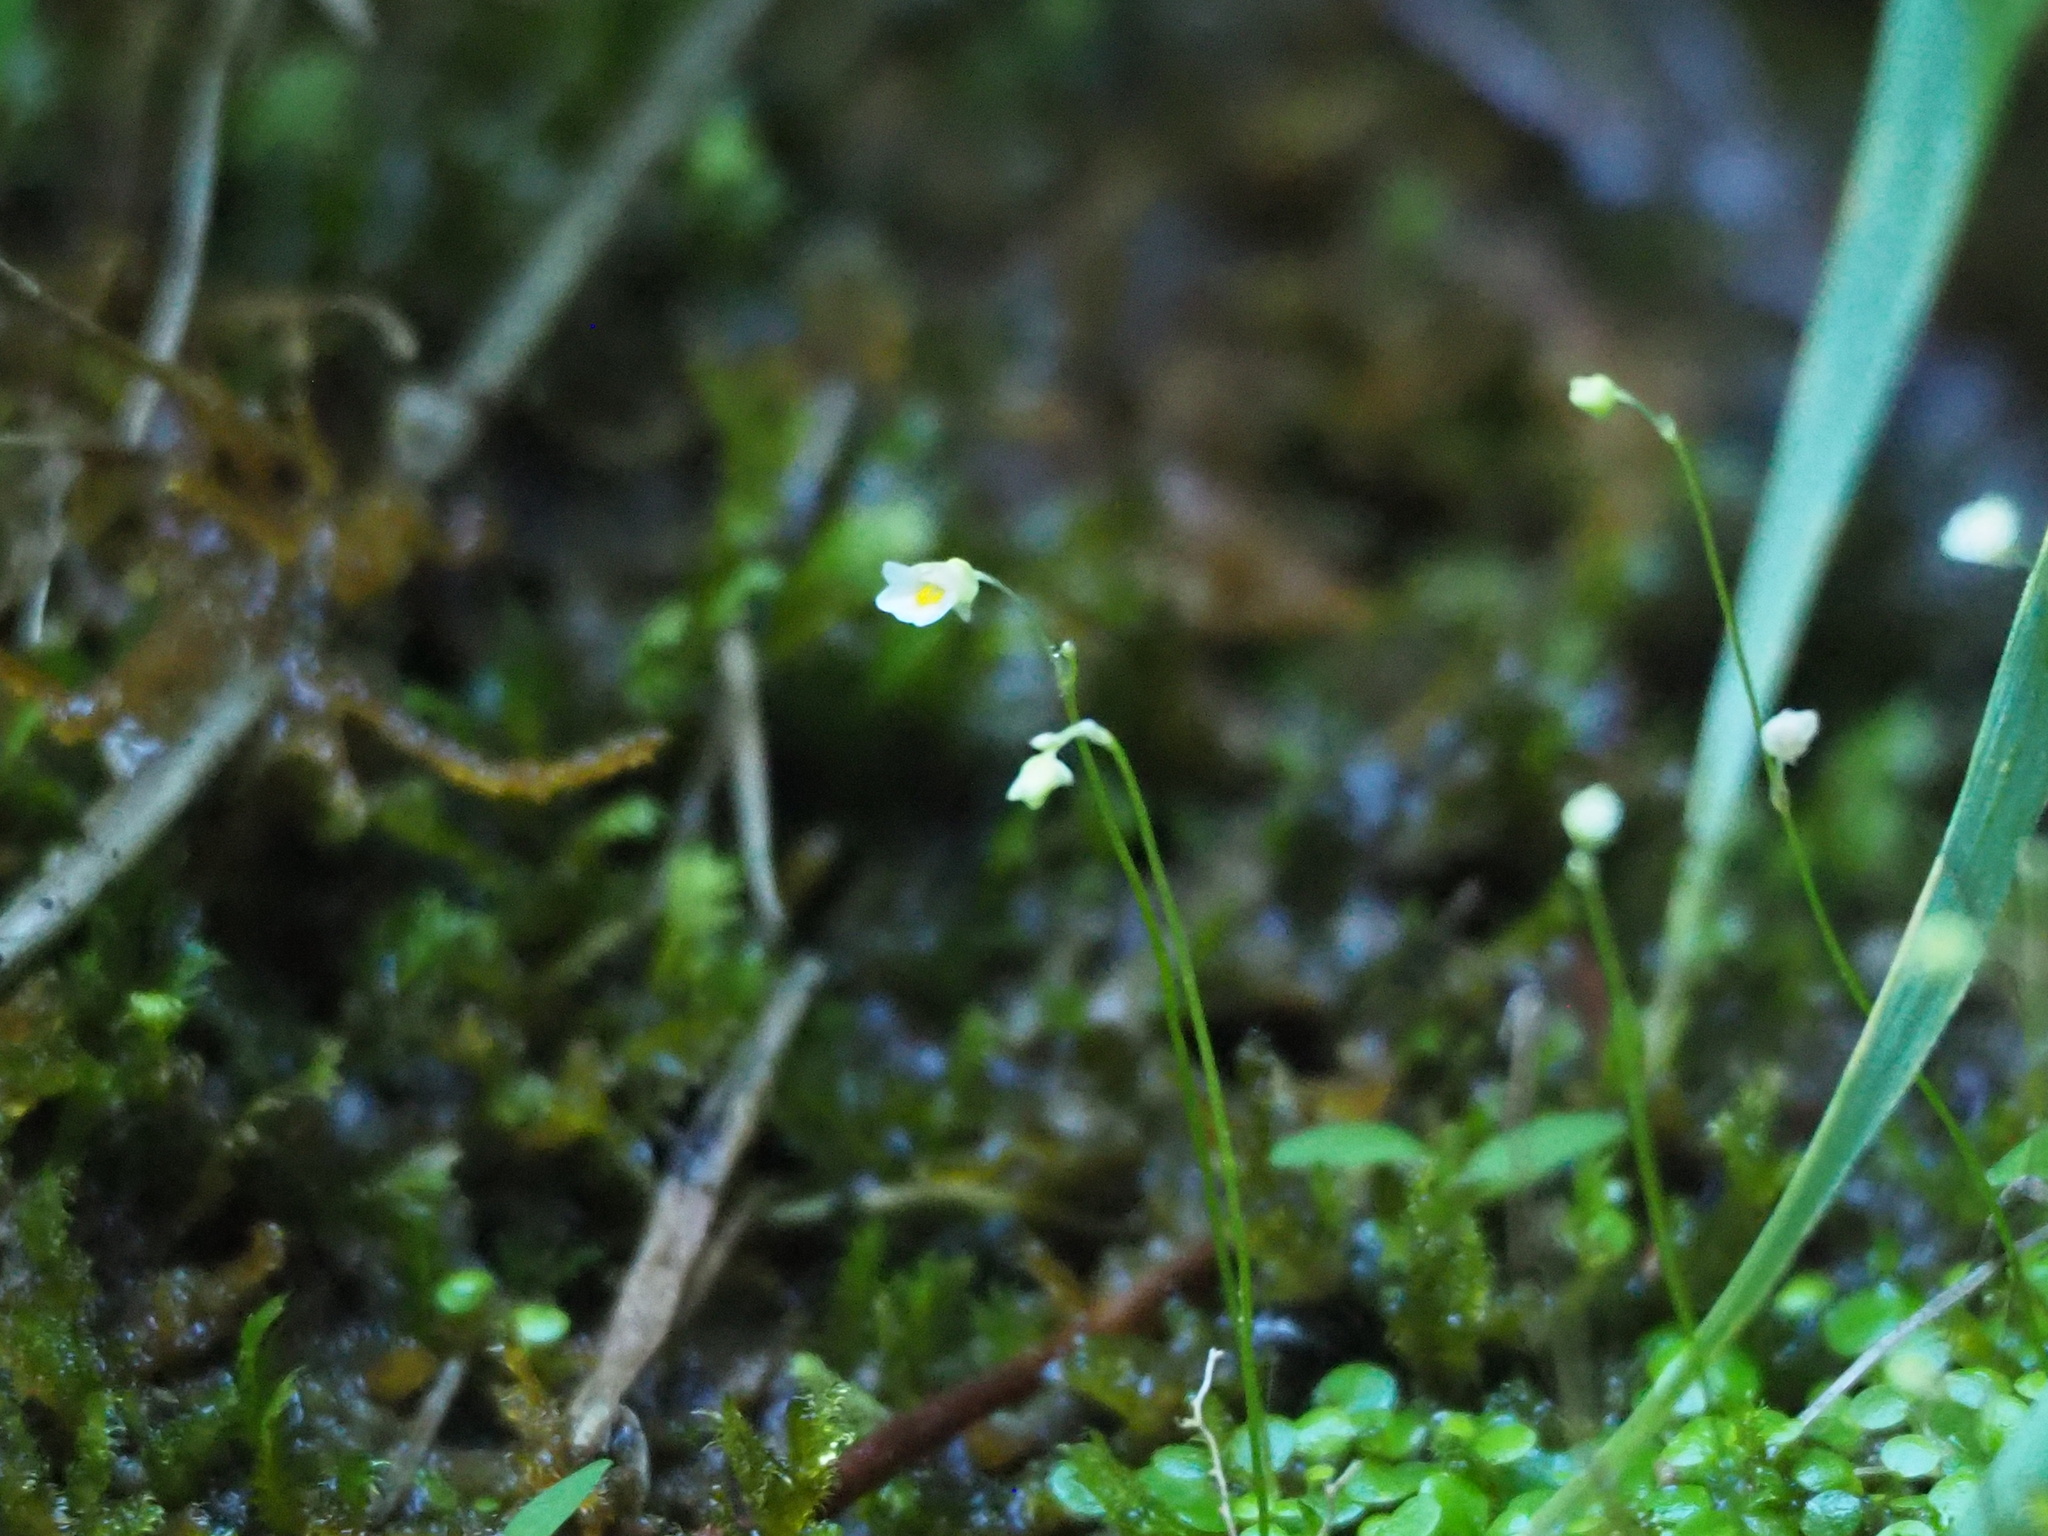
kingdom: Plantae
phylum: Tracheophyta
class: Magnoliopsida
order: Lamiales
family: Lentibulariaceae
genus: Utricularia
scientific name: Utricularia striatula
